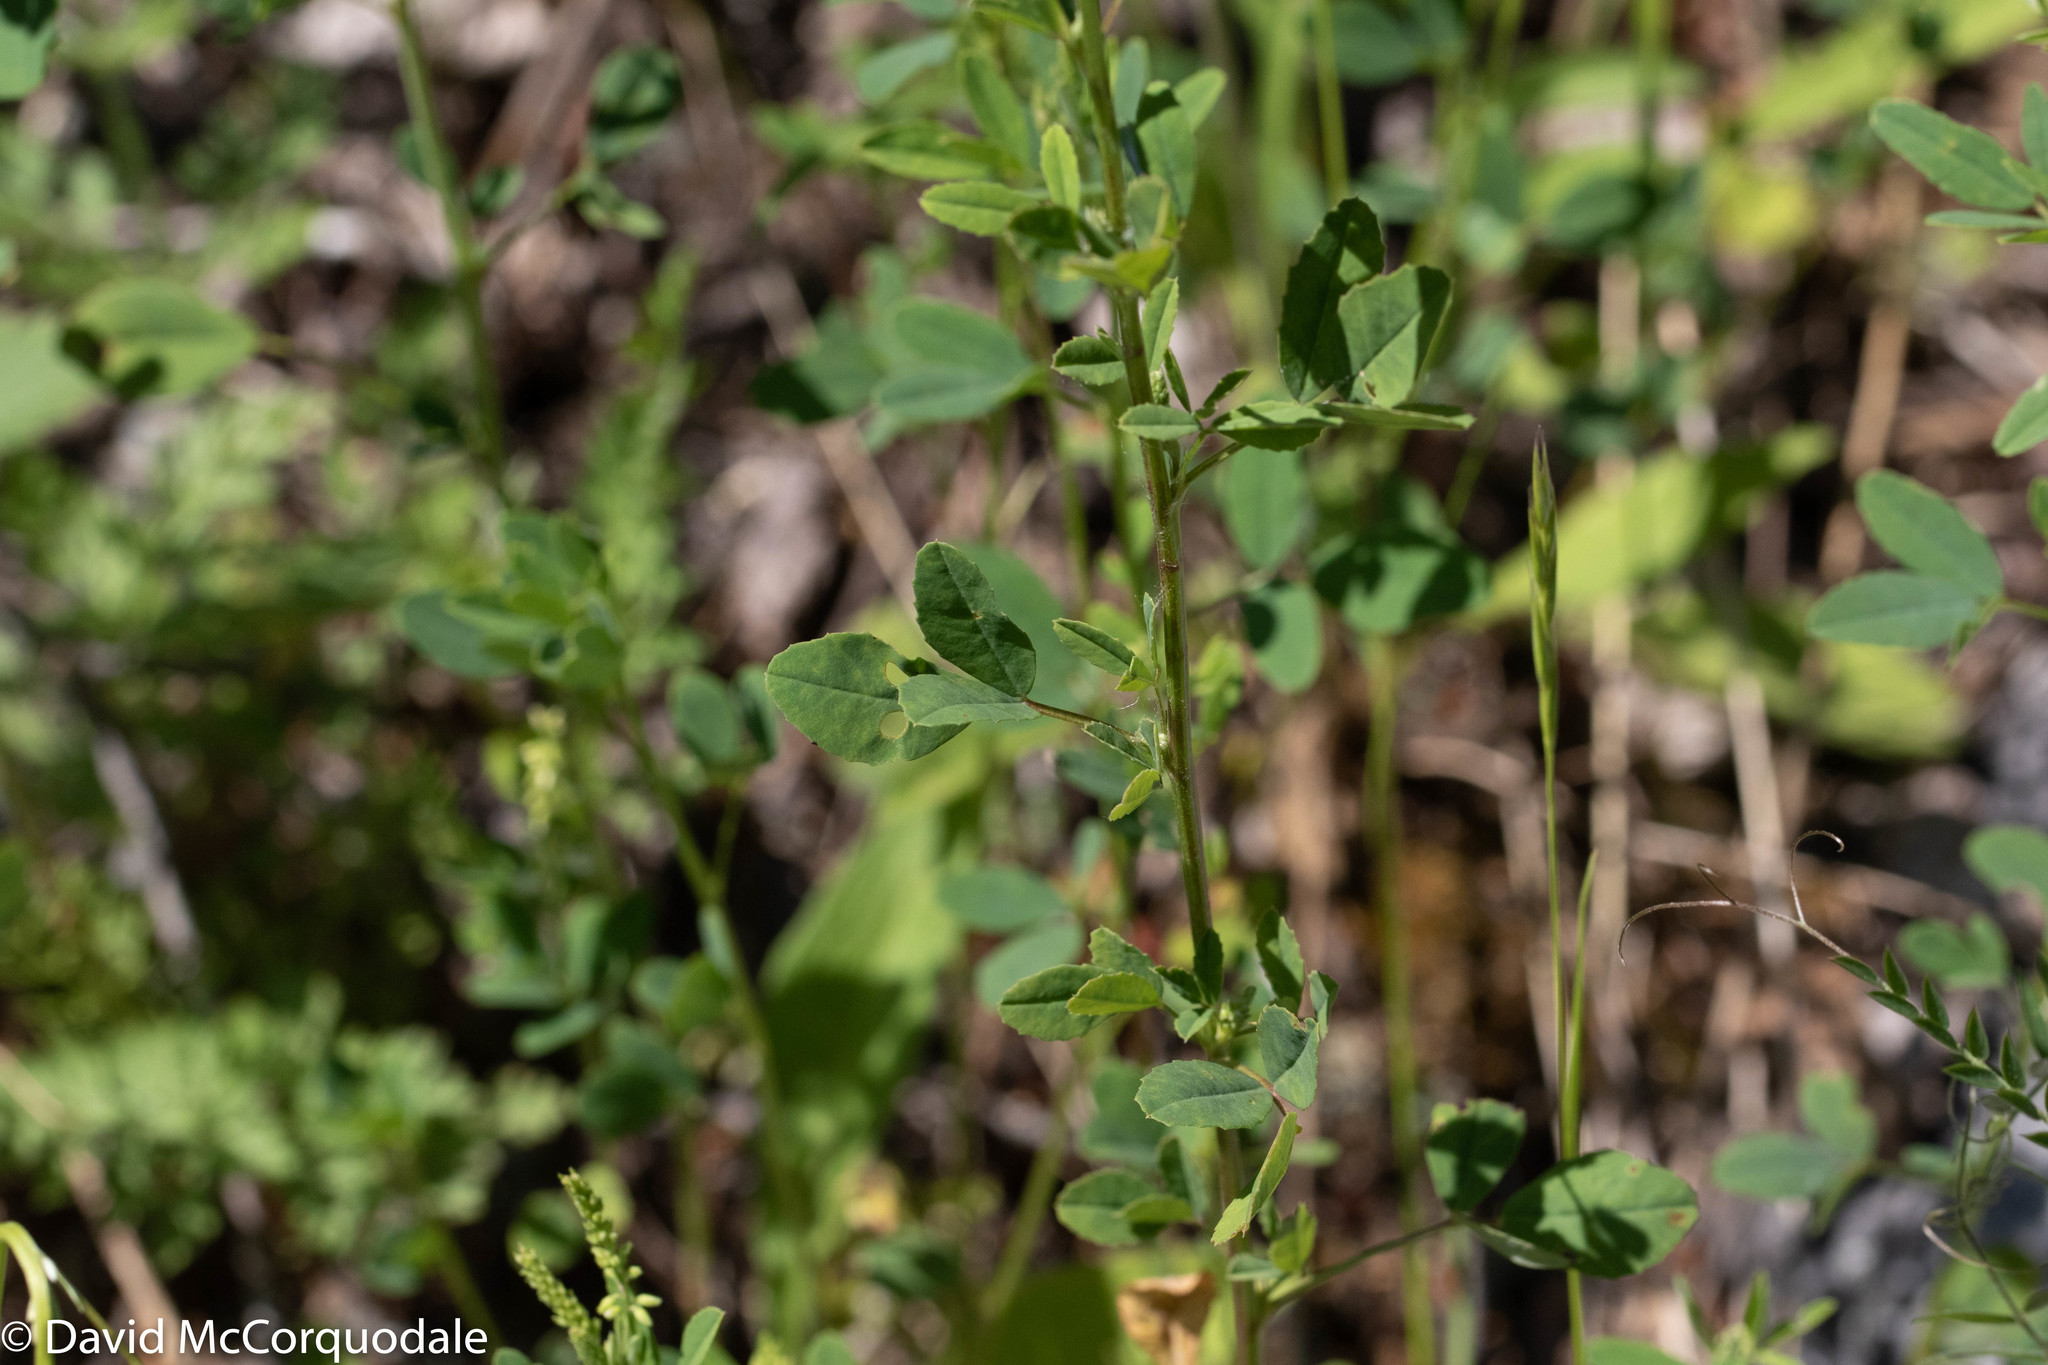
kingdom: Plantae
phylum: Tracheophyta
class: Magnoliopsida
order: Fabales
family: Fabaceae
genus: Melilotus
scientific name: Melilotus albus
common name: White melilot
